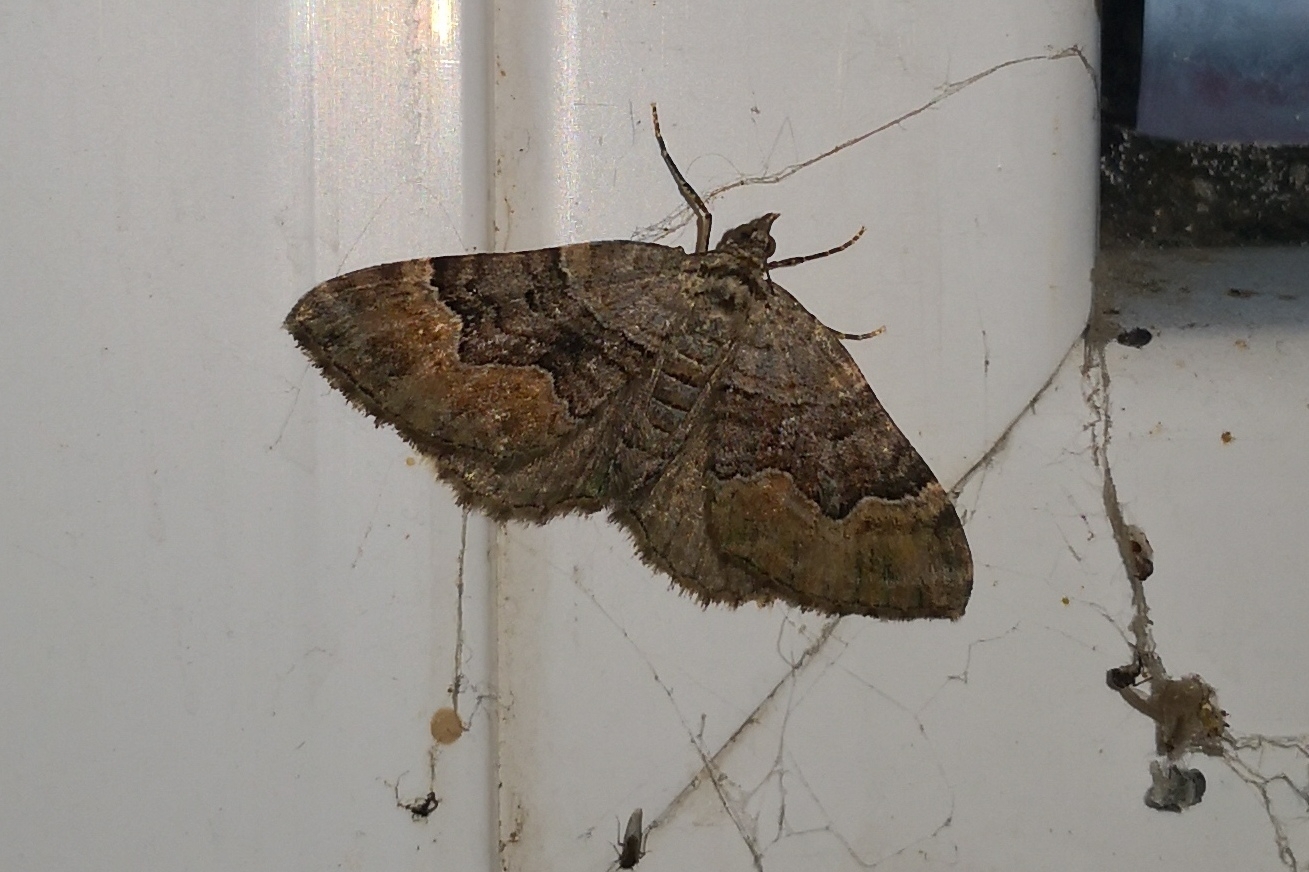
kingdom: Animalia
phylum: Arthropoda
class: Insecta
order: Lepidoptera
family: Geometridae
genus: Xanthorhoe
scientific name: Xanthorhoe quadrifasiata
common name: Large twin-spot carpet
